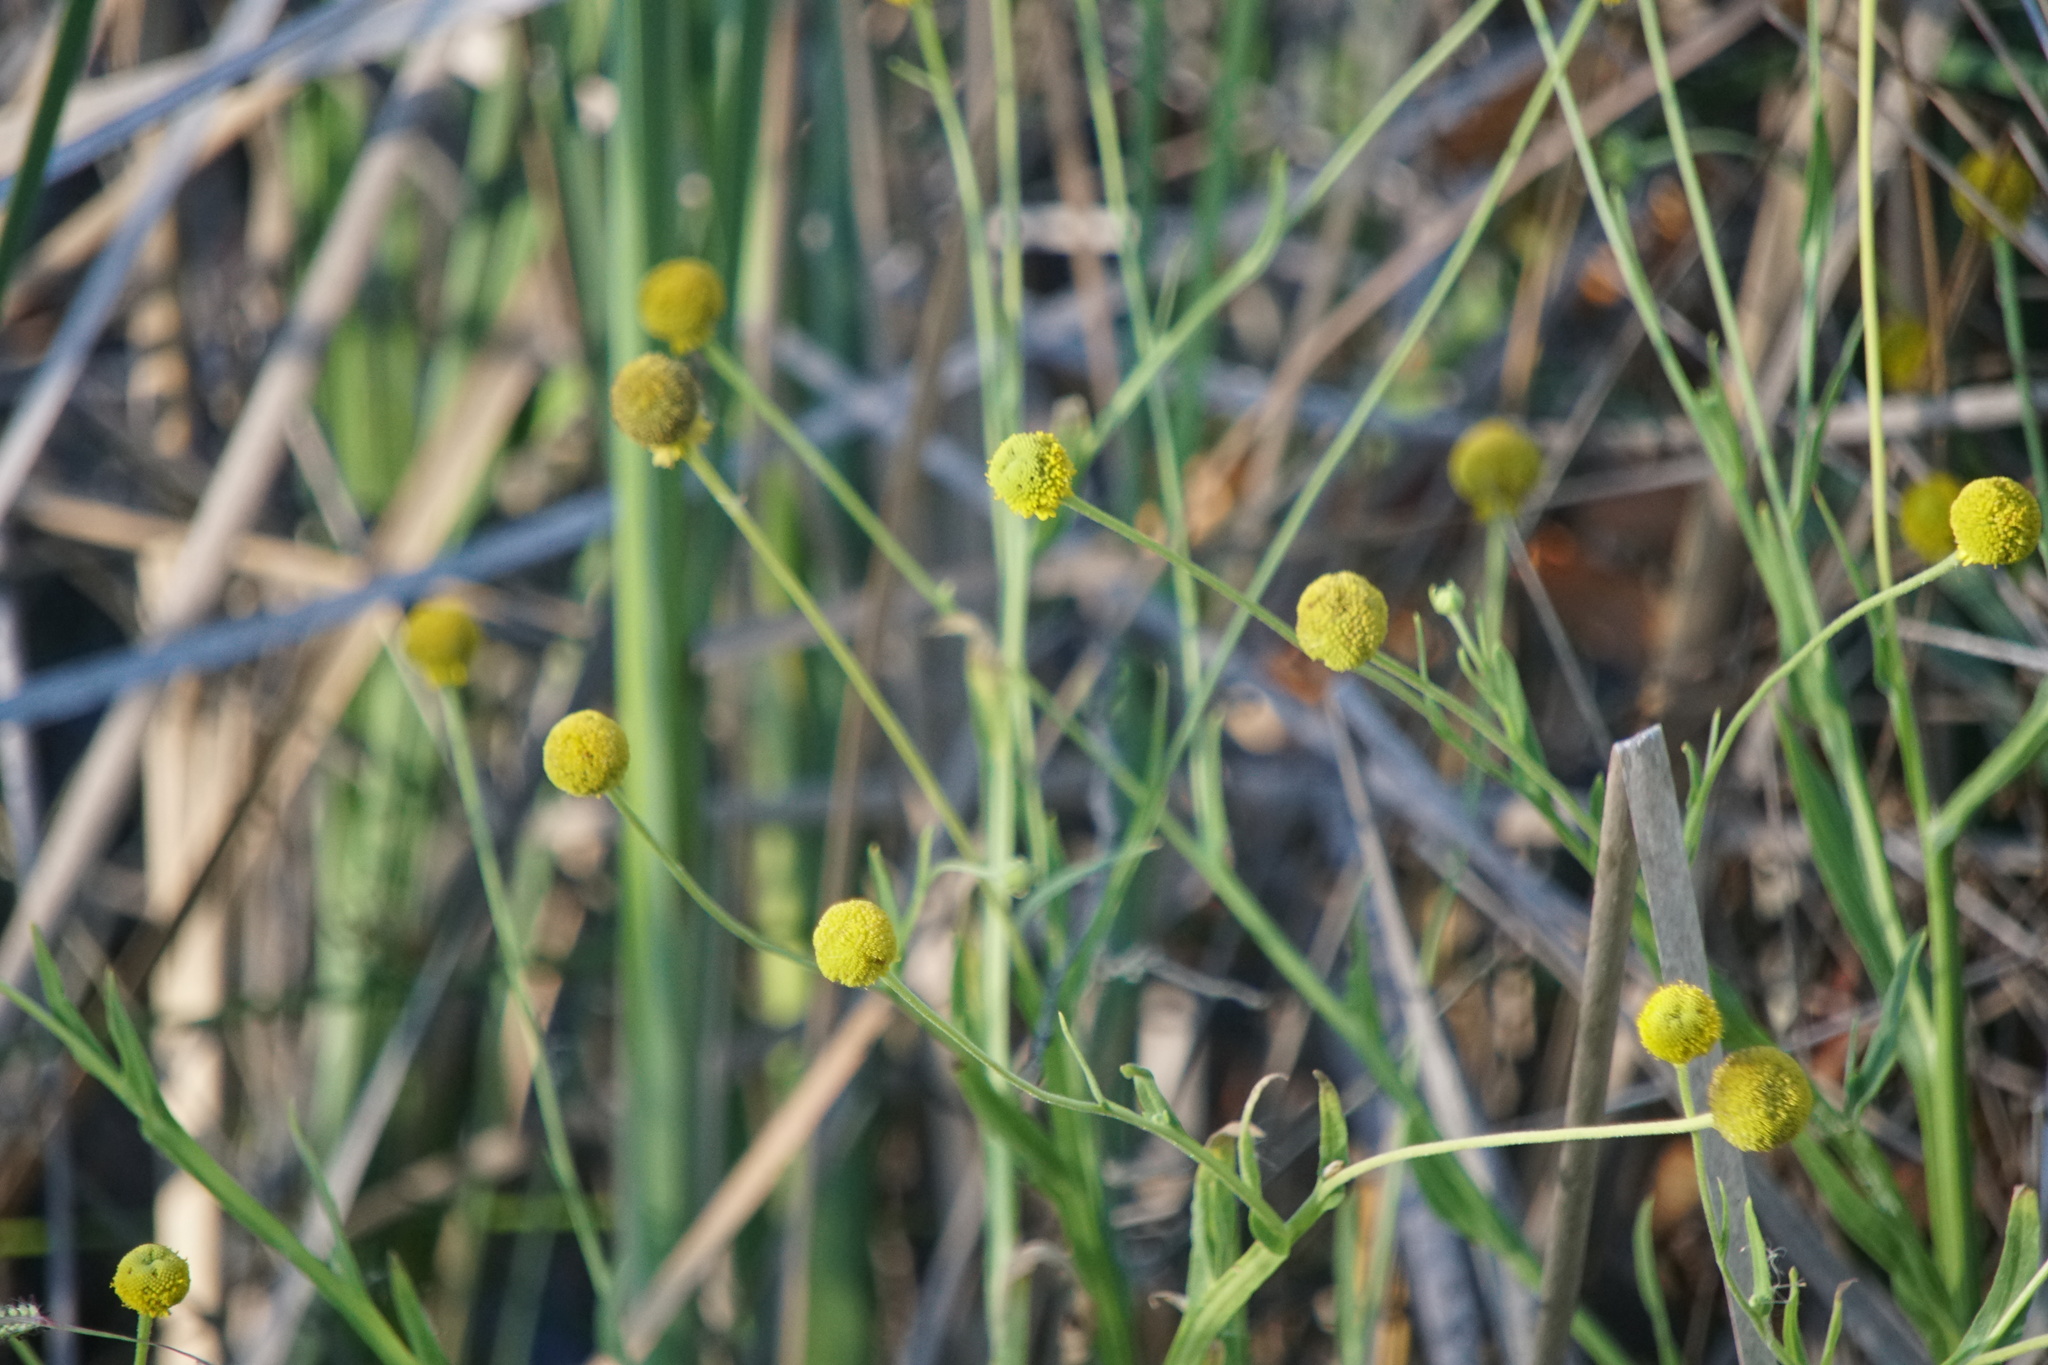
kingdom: Plantae
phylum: Tracheophyta
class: Magnoliopsida
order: Asterales
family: Asteraceae
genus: Helenium
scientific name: Helenium puberulum
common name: Sneezewort
